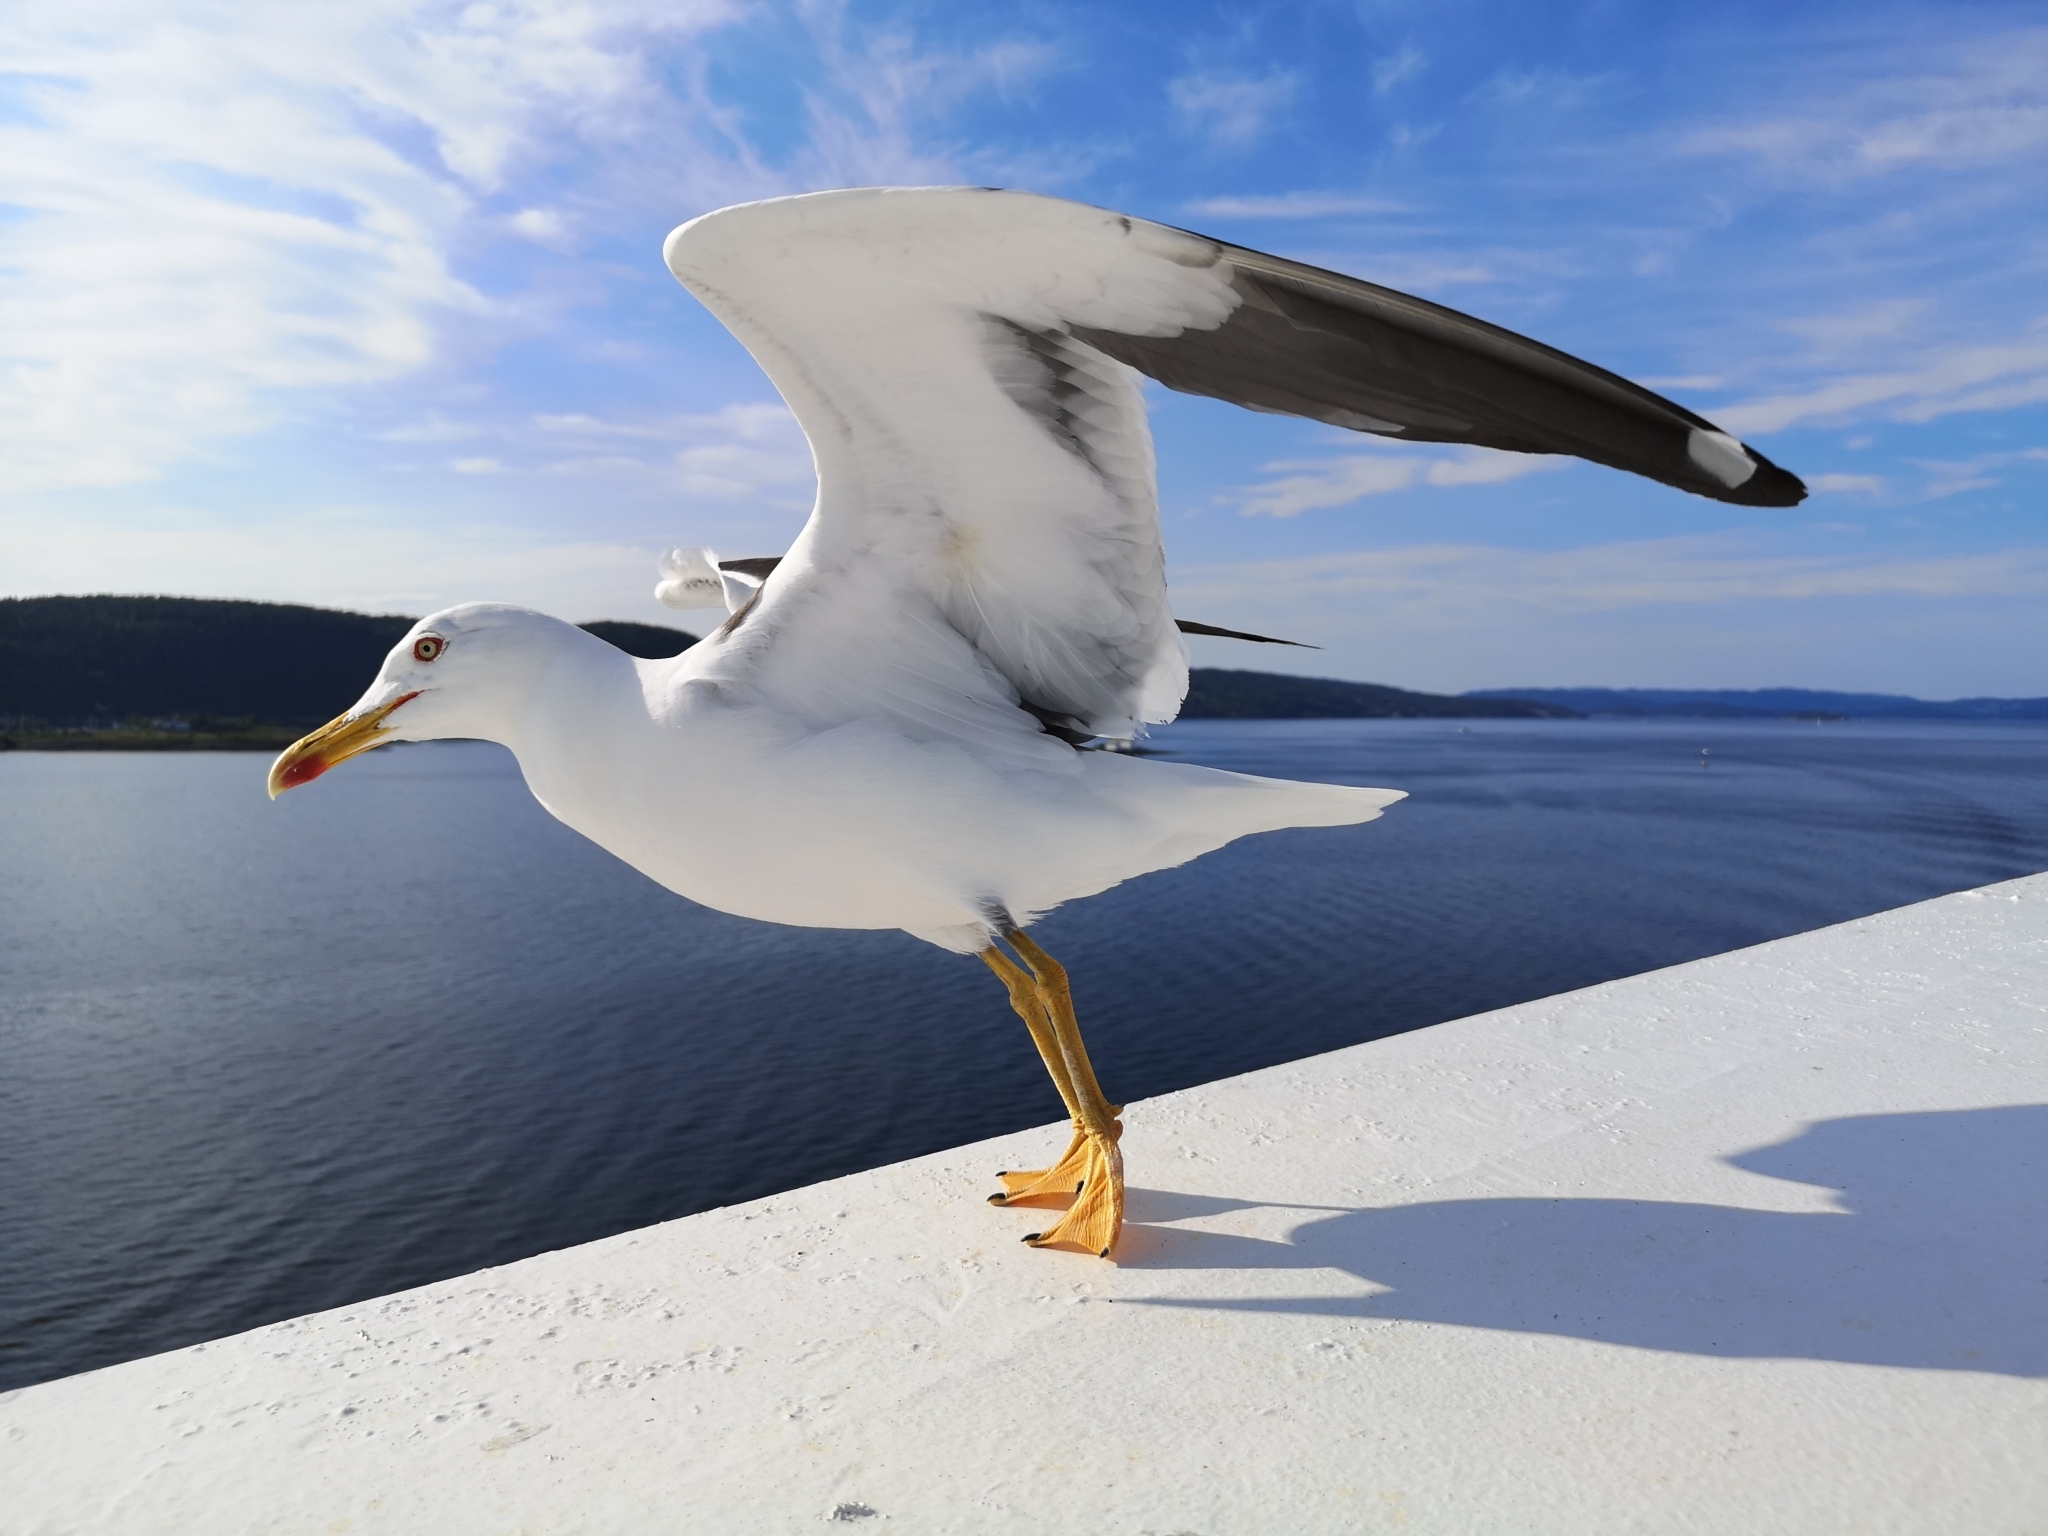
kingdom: Animalia
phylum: Chordata
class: Aves
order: Charadriiformes
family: Laridae
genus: Larus
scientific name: Larus fuscus
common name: Lesser black-backed gull
